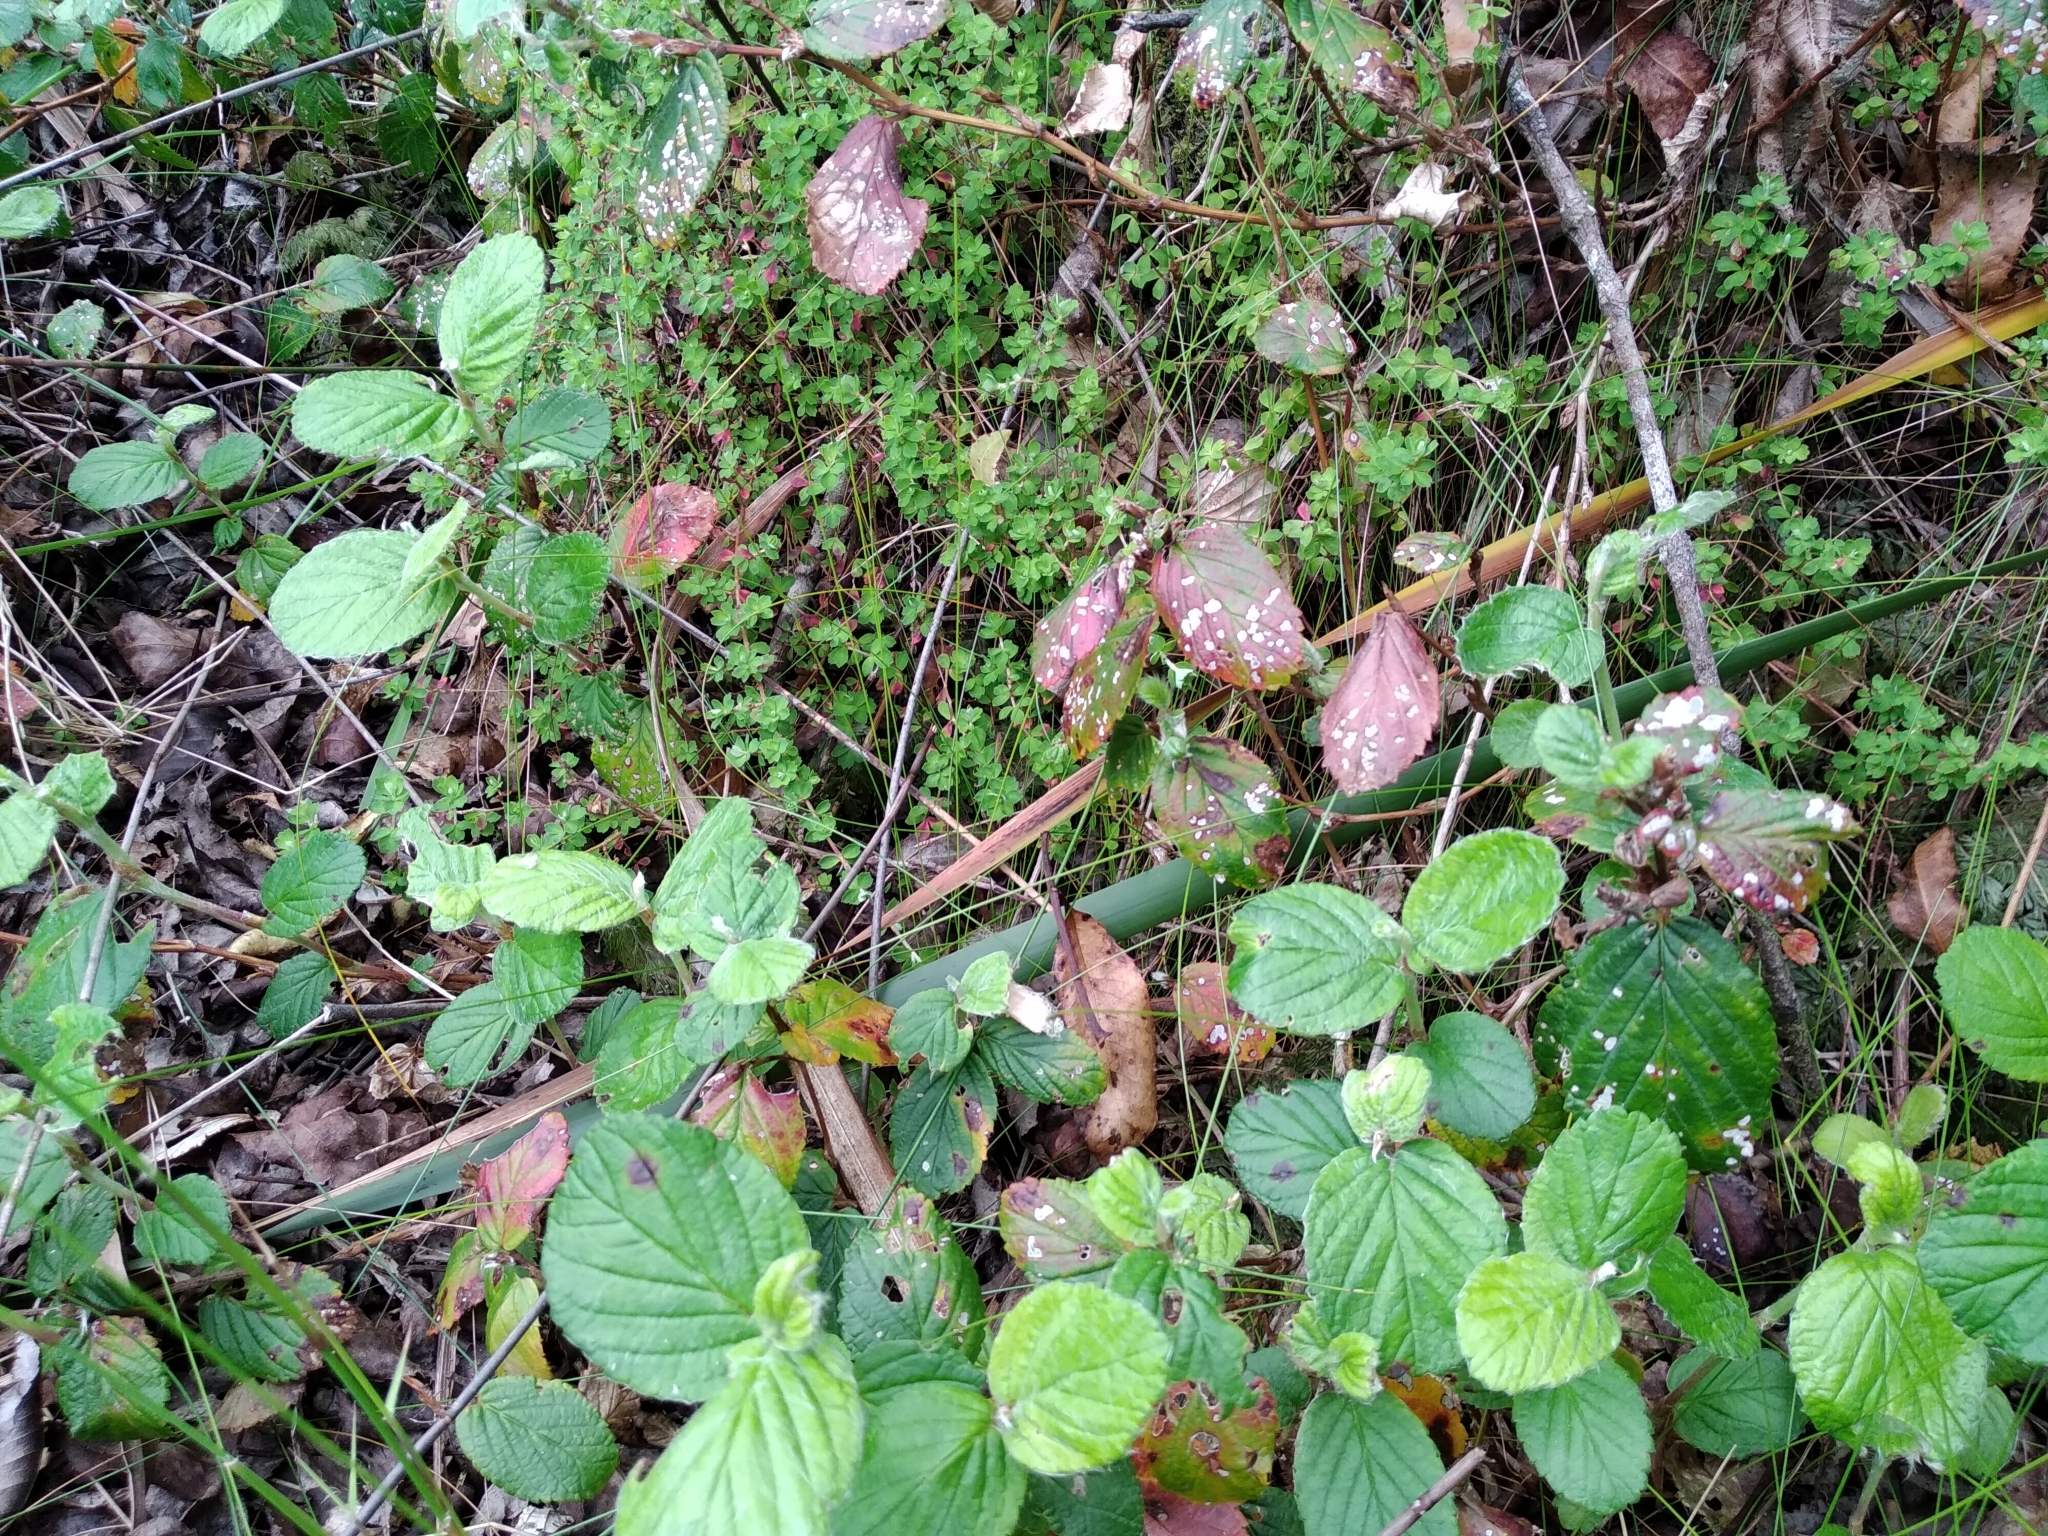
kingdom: Plantae
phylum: Tracheophyta
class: Magnoliopsida
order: Rosales
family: Rosaceae
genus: Cliffortia
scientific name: Cliffortia odorata
